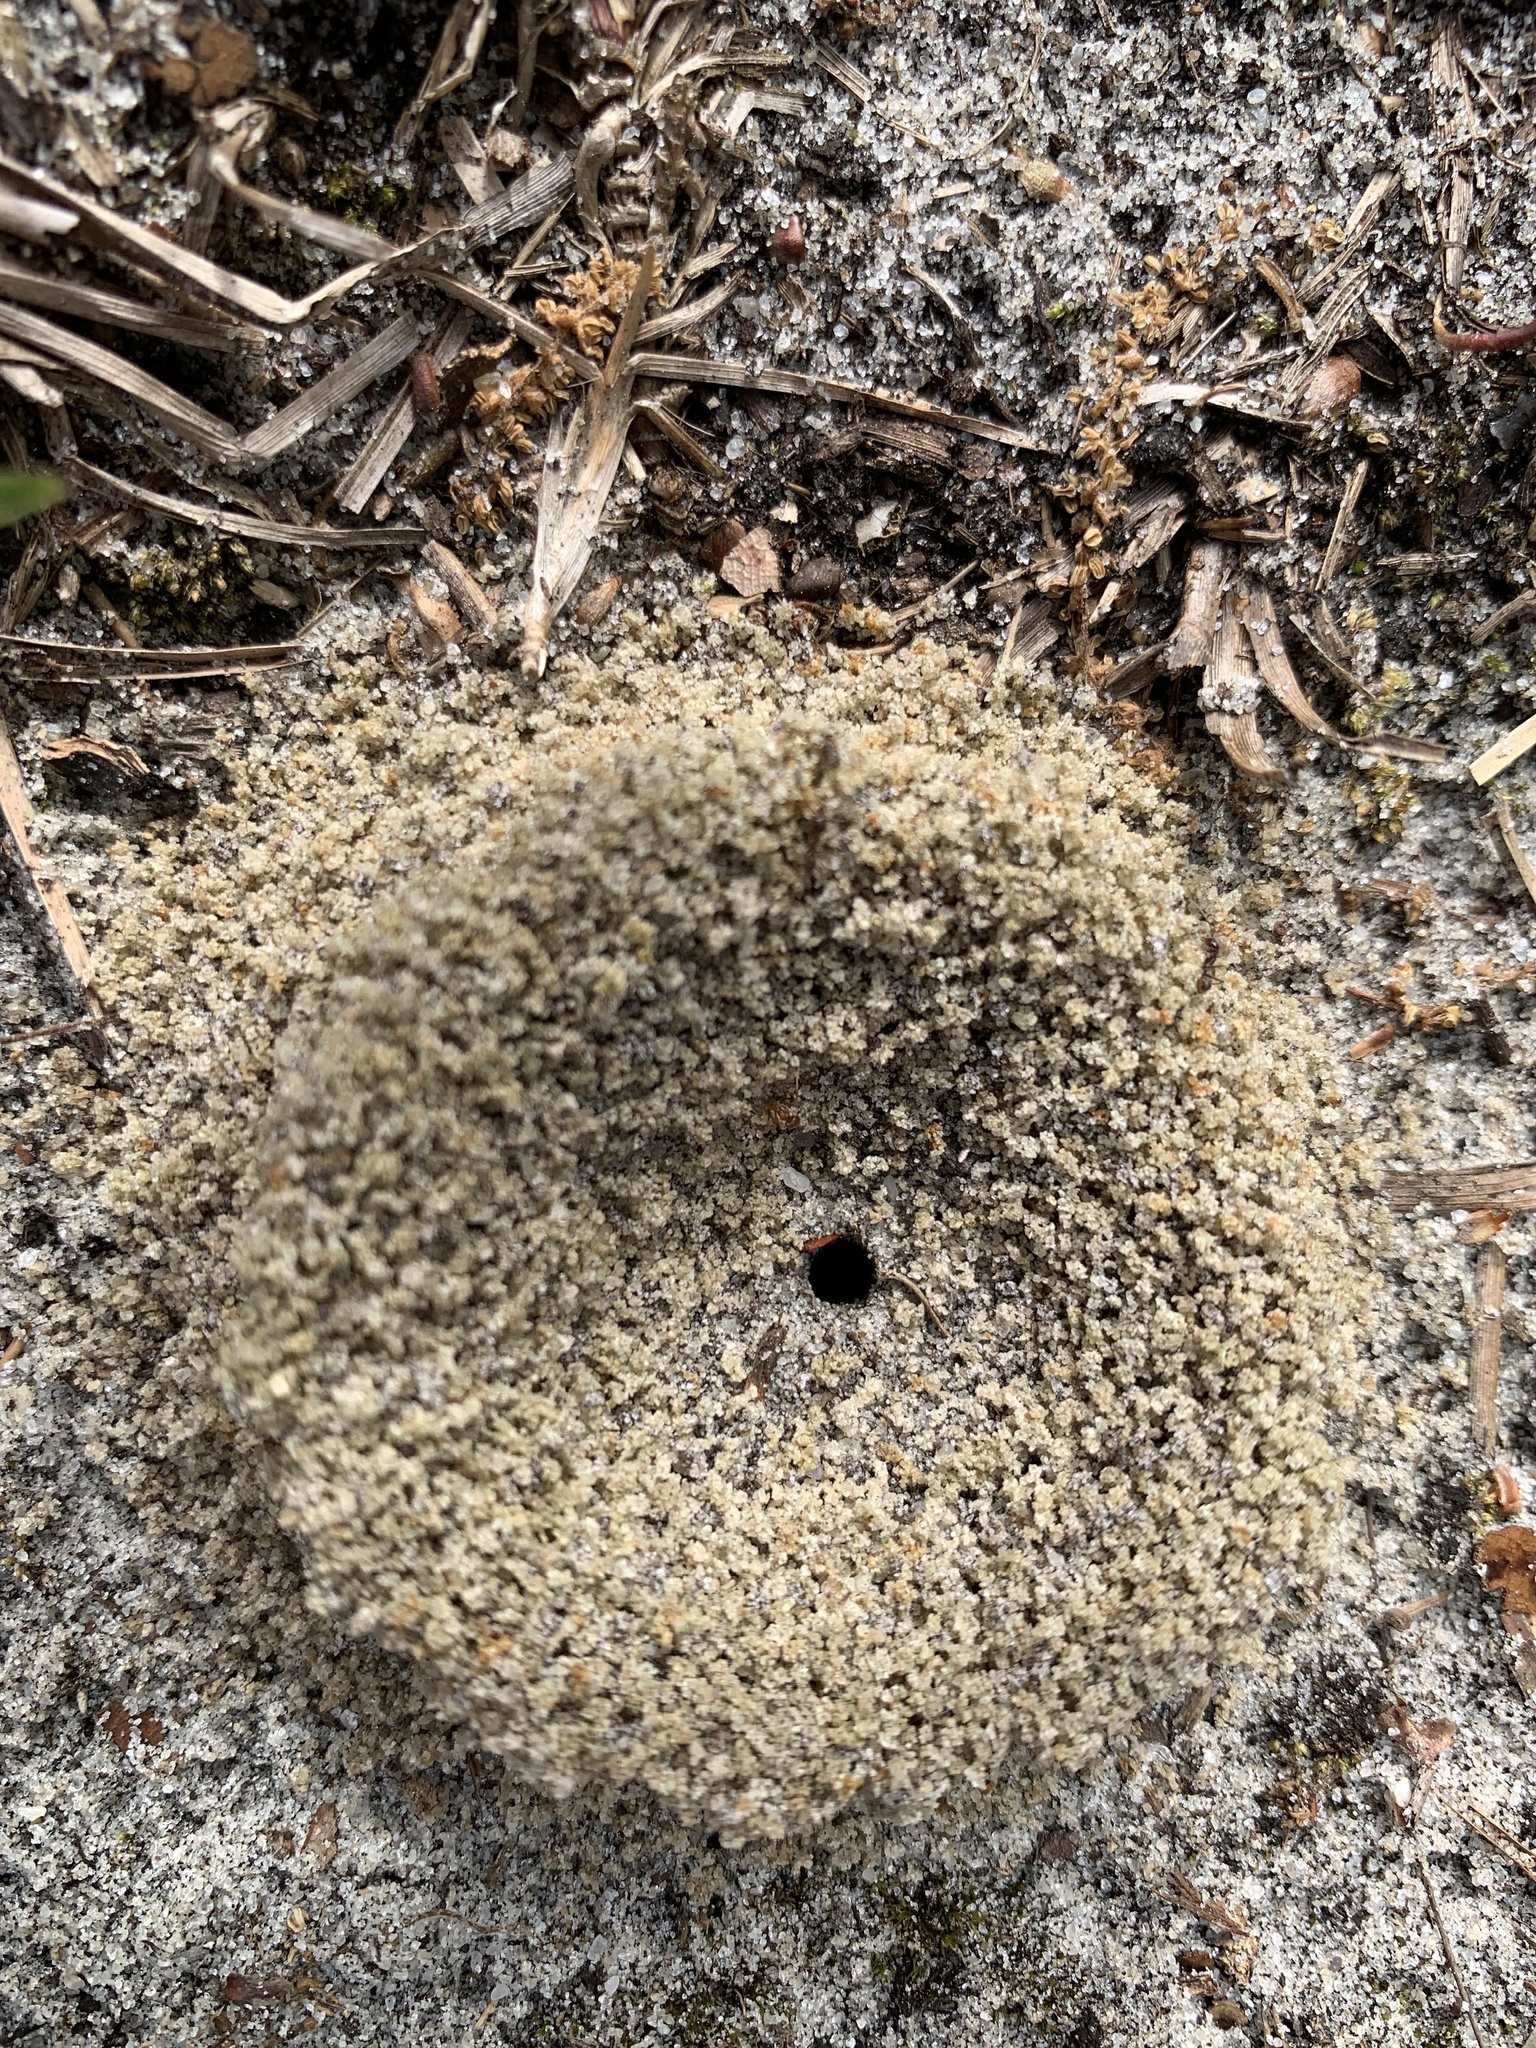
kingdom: Animalia
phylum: Arthropoda
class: Insecta
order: Hymenoptera
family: Formicidae
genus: Dorymyrmex
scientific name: Dorymyrmex bureni
